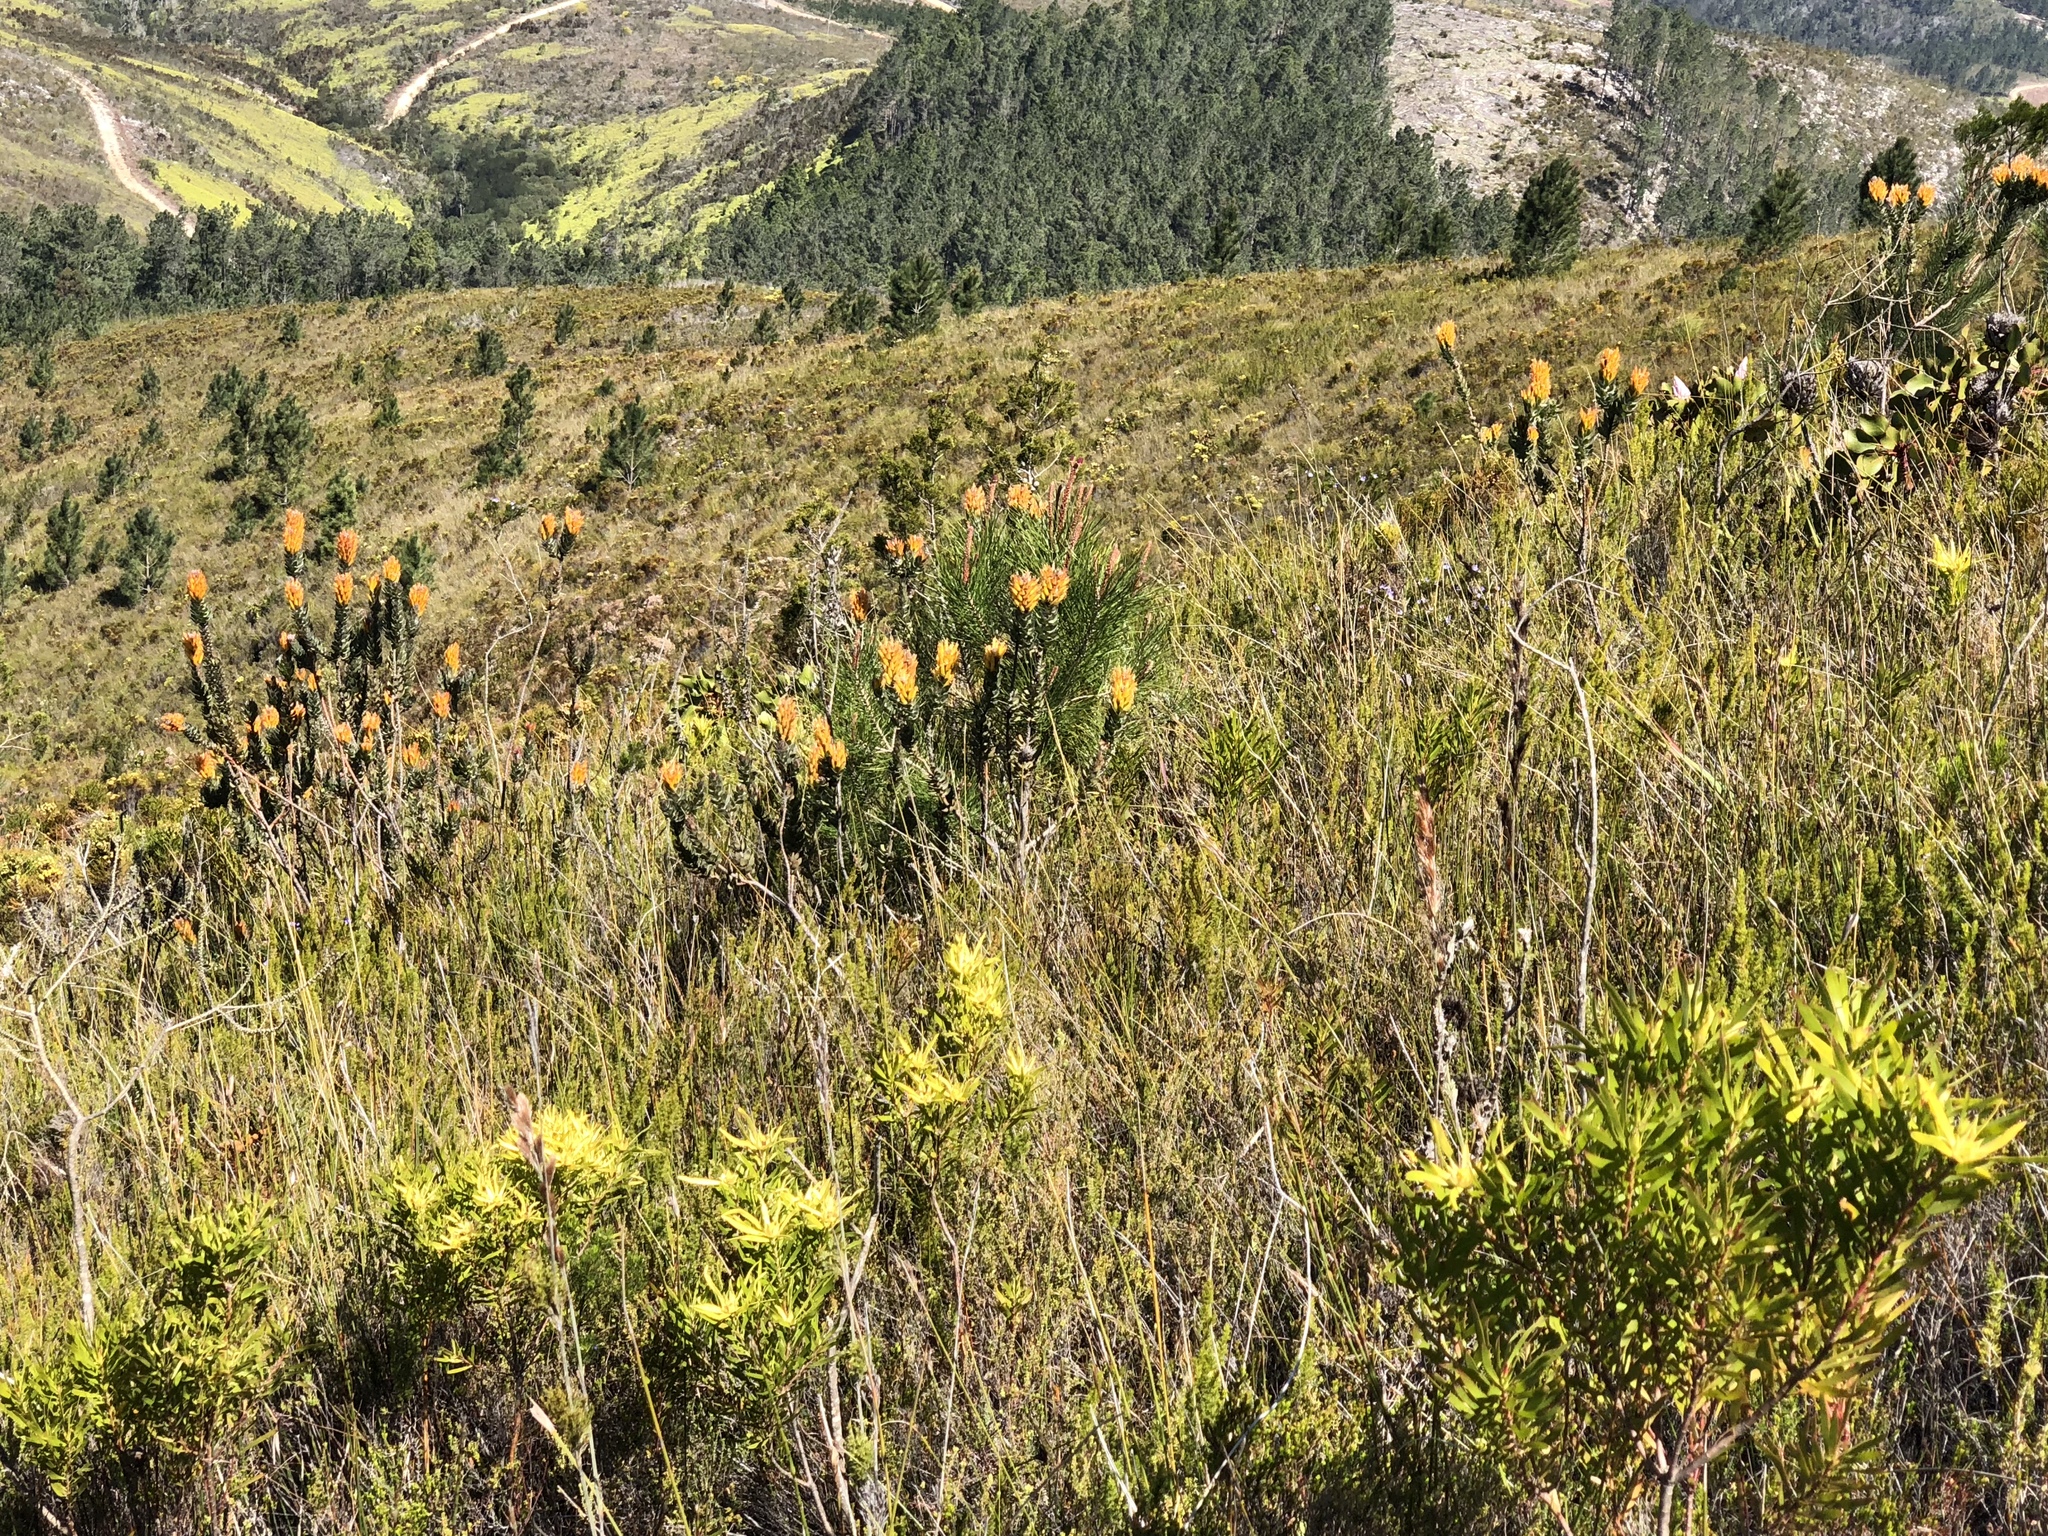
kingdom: Plantae
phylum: Tracheophyta
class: Magnoliopsida
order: Proteales
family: Proteaceae
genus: Mimetes
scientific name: Mimetes pauciflora
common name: Three-flowered pagoda
